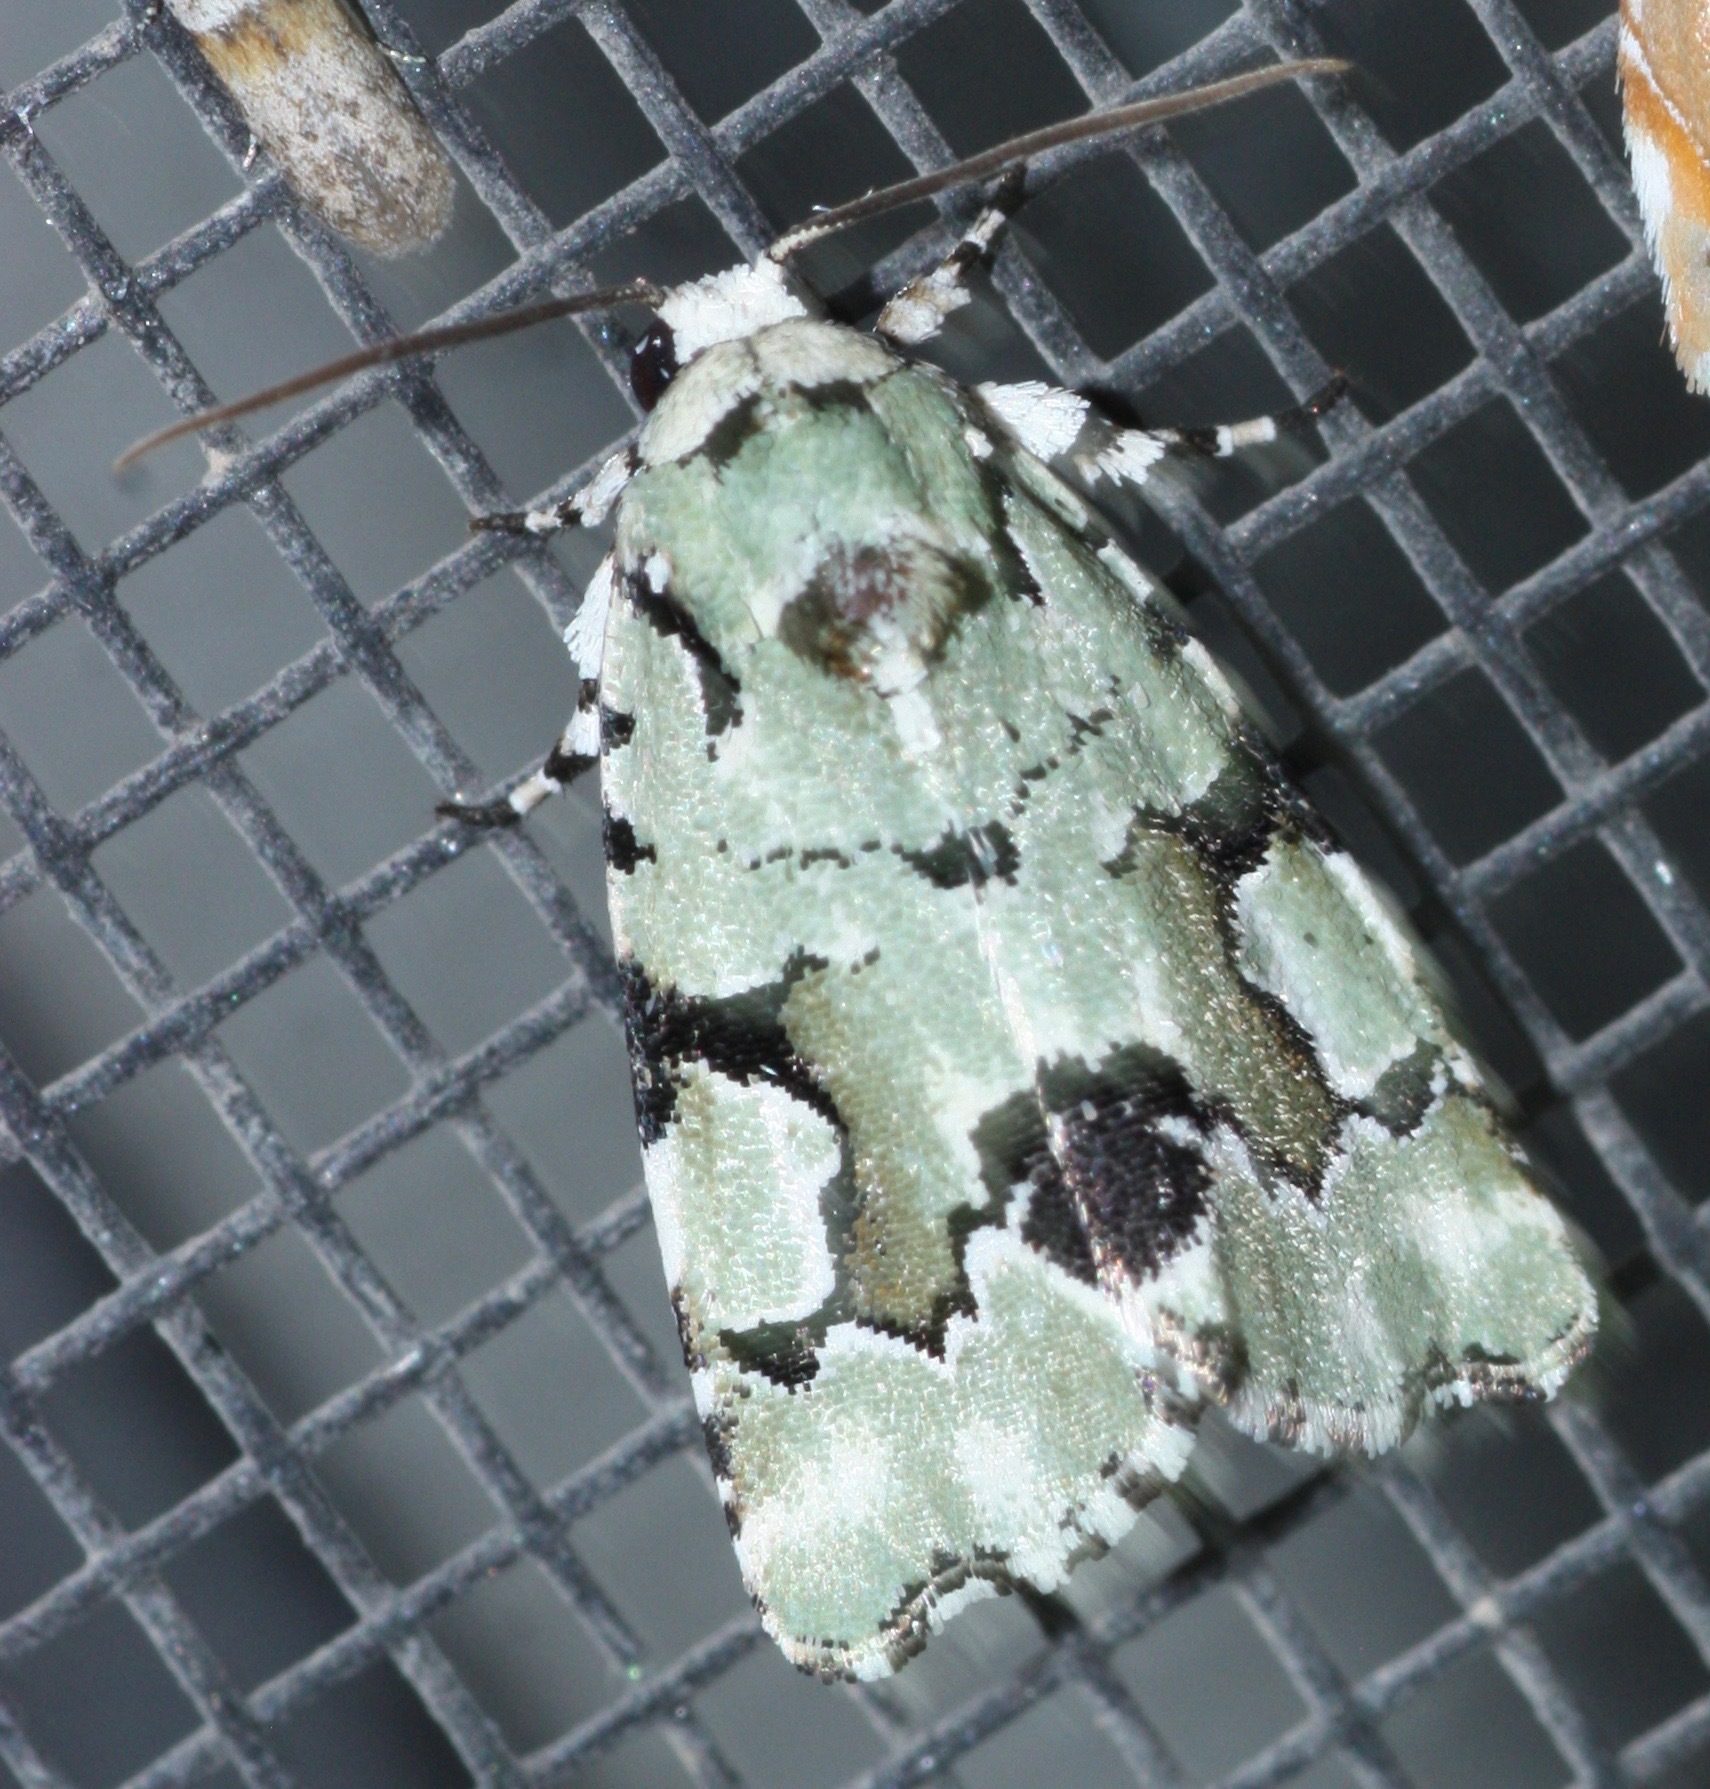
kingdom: Animalia
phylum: Arthropoda
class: Insecta
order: Lepidoptera
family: Noctuidae
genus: Emarginea
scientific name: Emarginea percara
